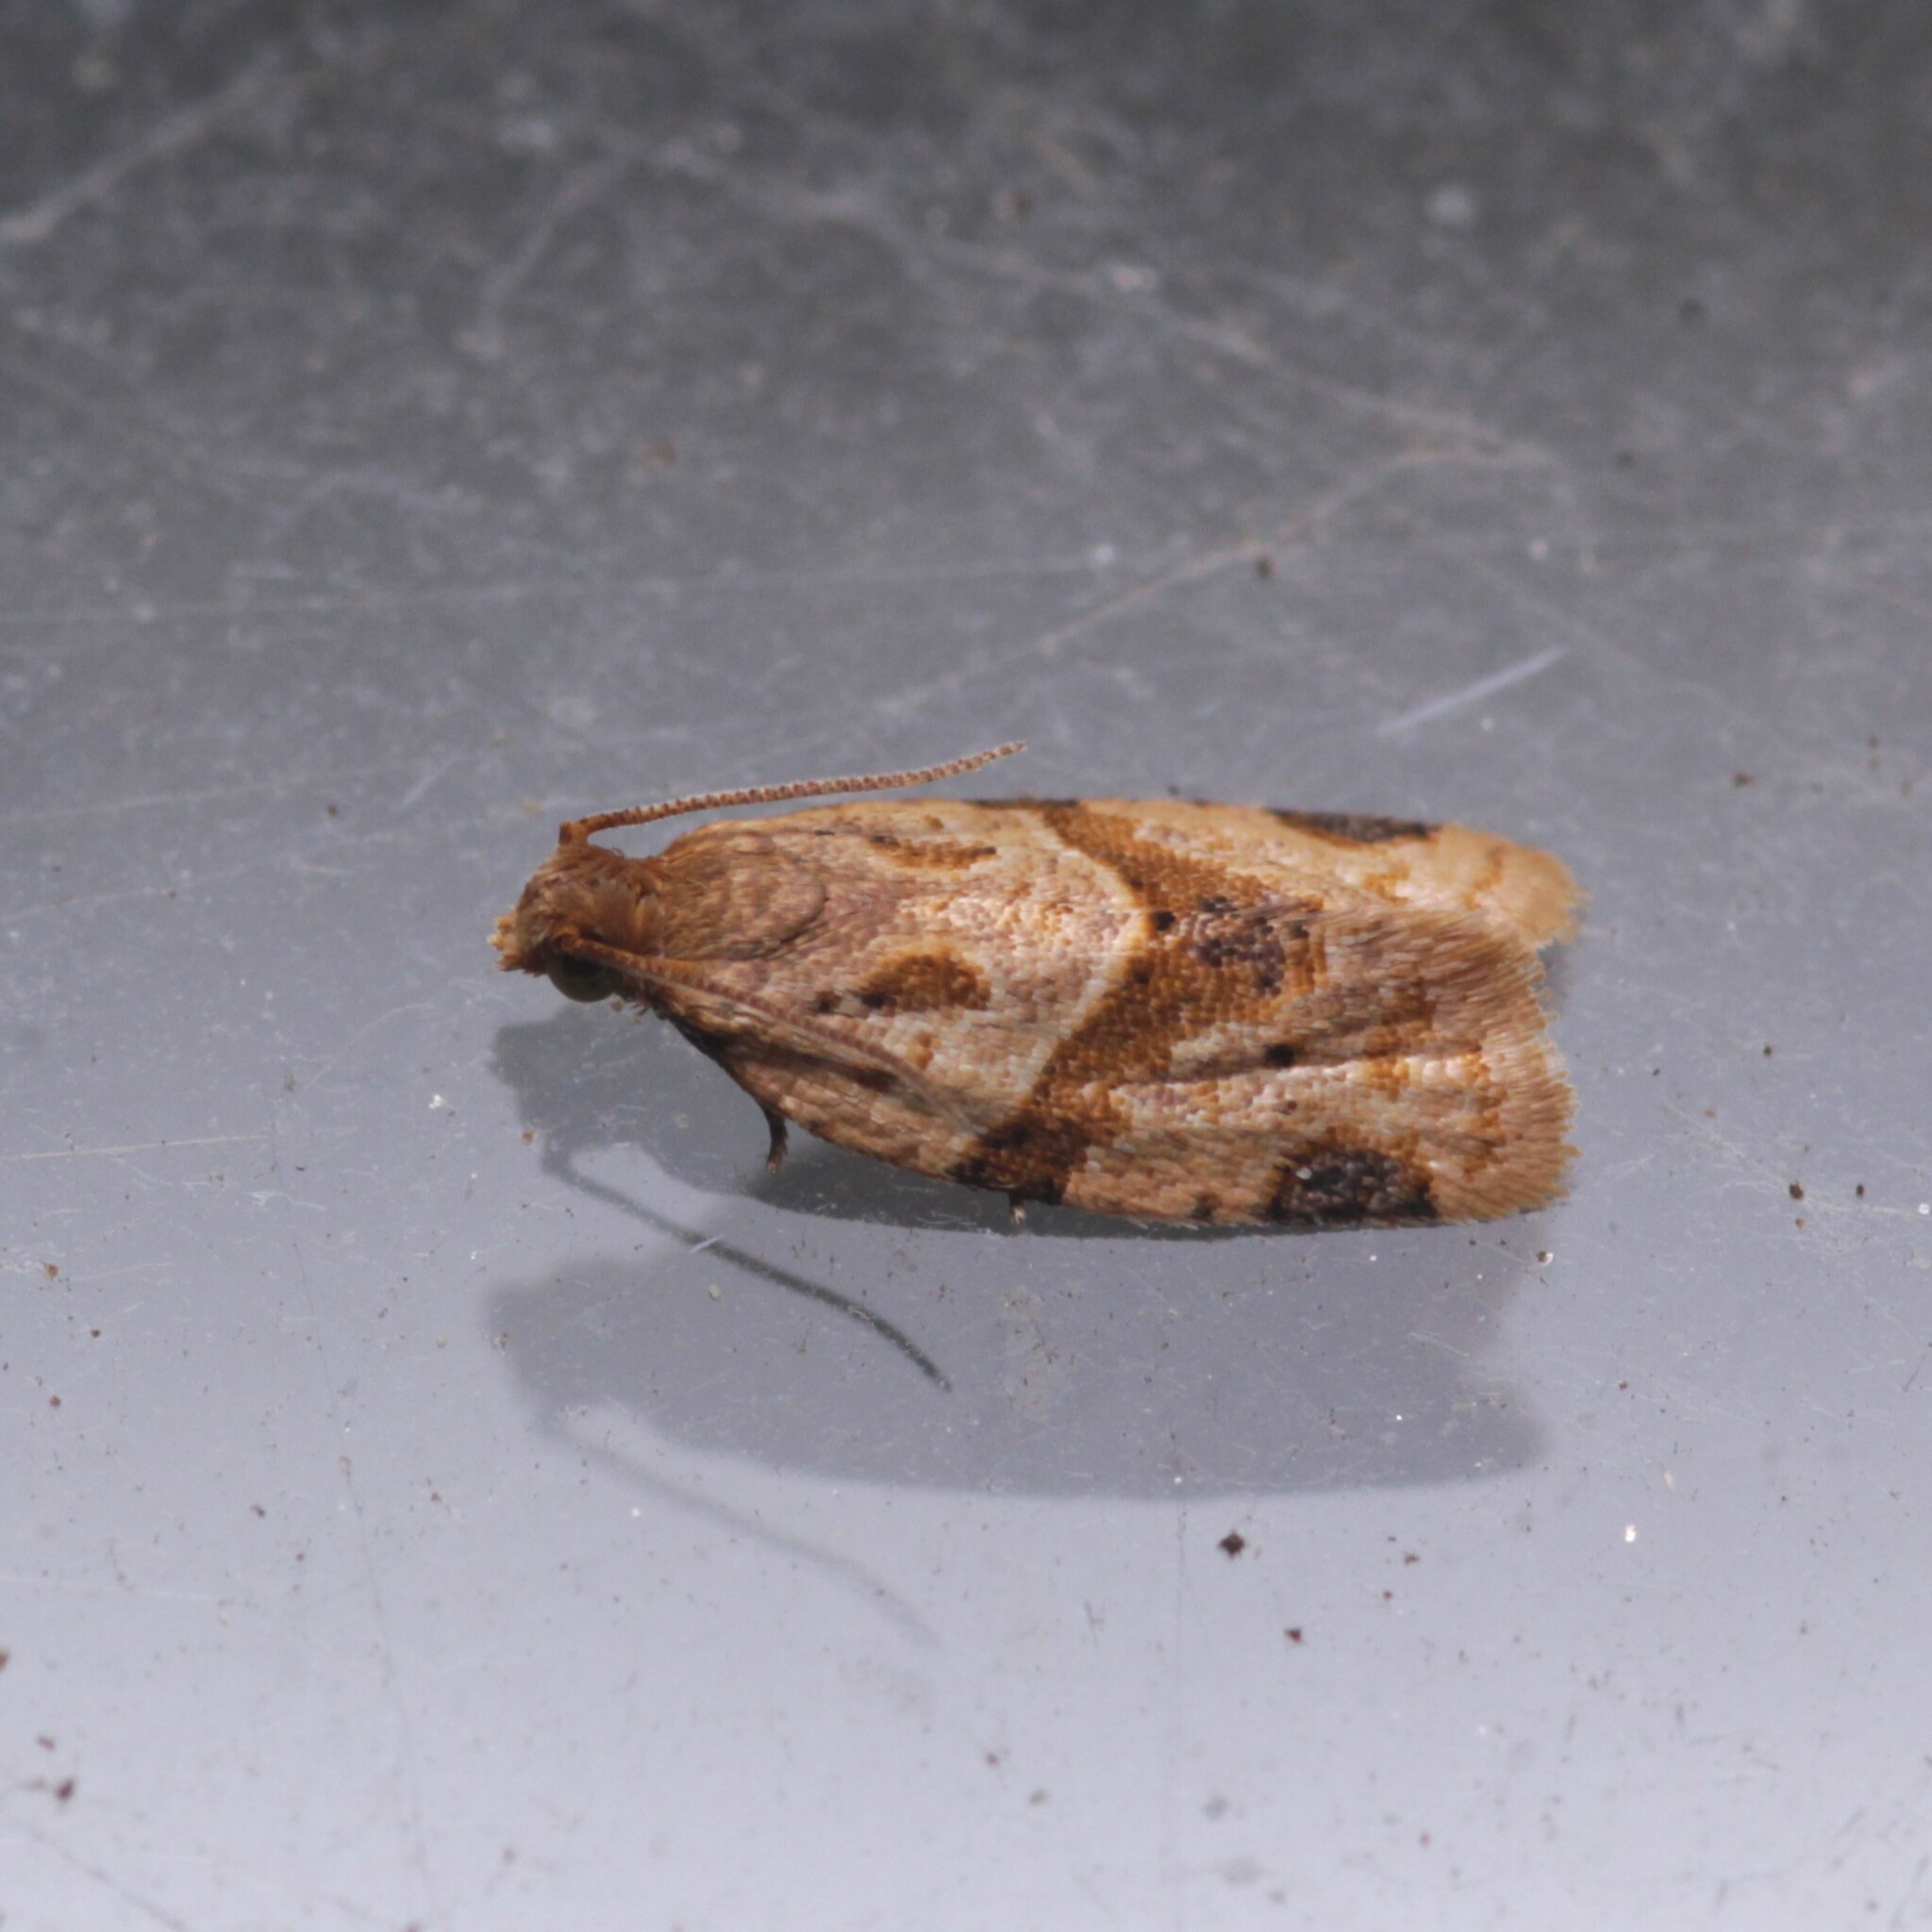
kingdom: Animalia
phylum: Arthropoda
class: Insecta
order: Lepidoptera
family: Tortricidae
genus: Clepsis
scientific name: Clepsis peritana
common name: Garden tortrix
